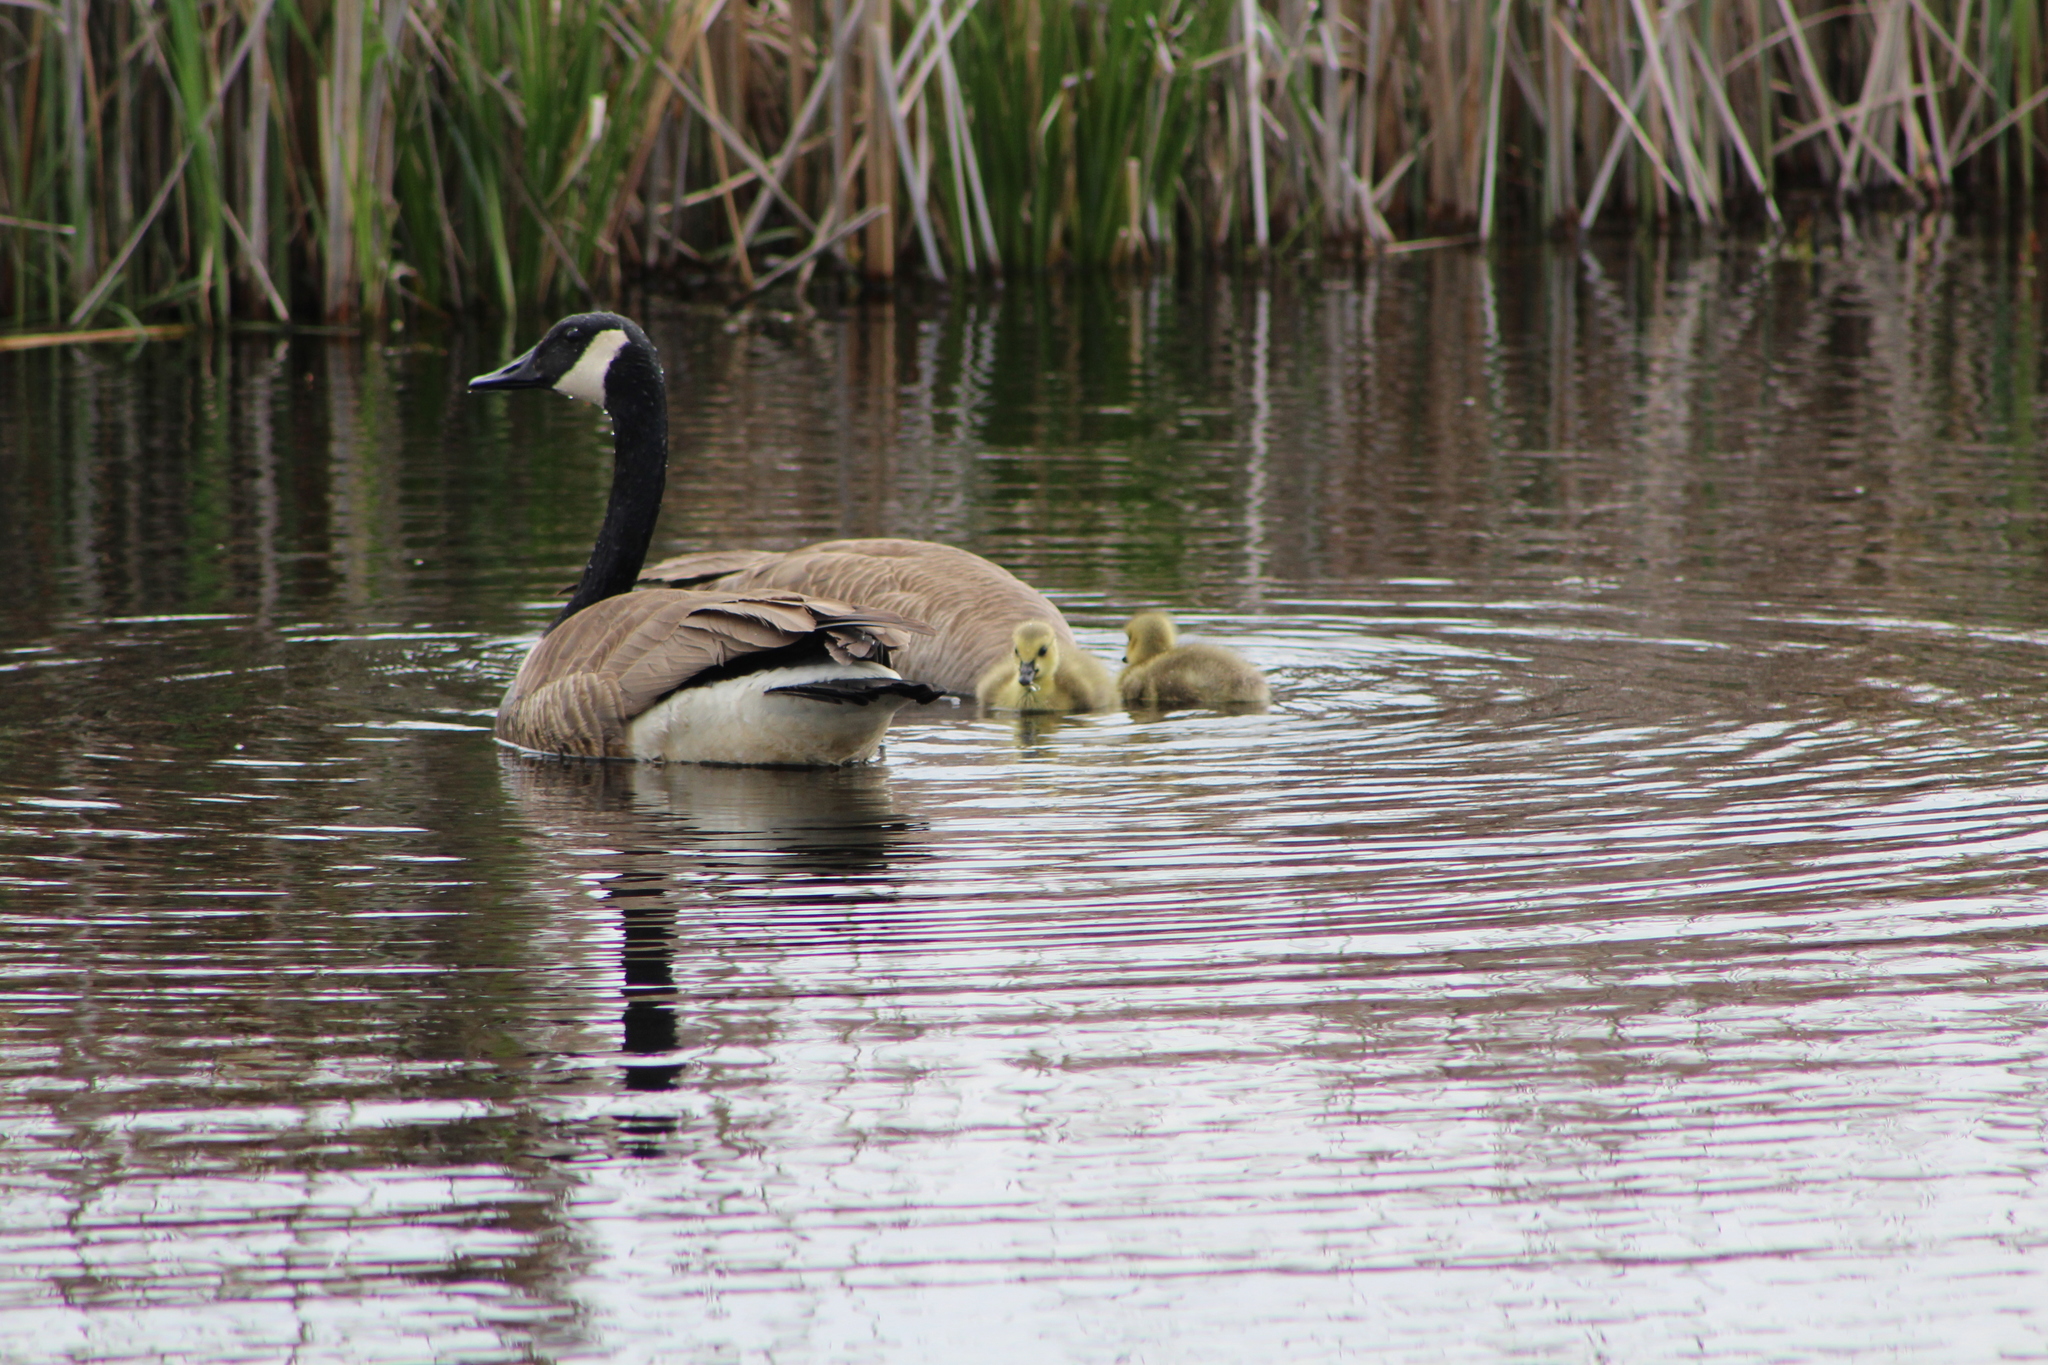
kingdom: Animalia
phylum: Chordata
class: Aves
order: Anseriformes
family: Anatidae
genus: Branta
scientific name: Branta canadensis
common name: Canada goose
